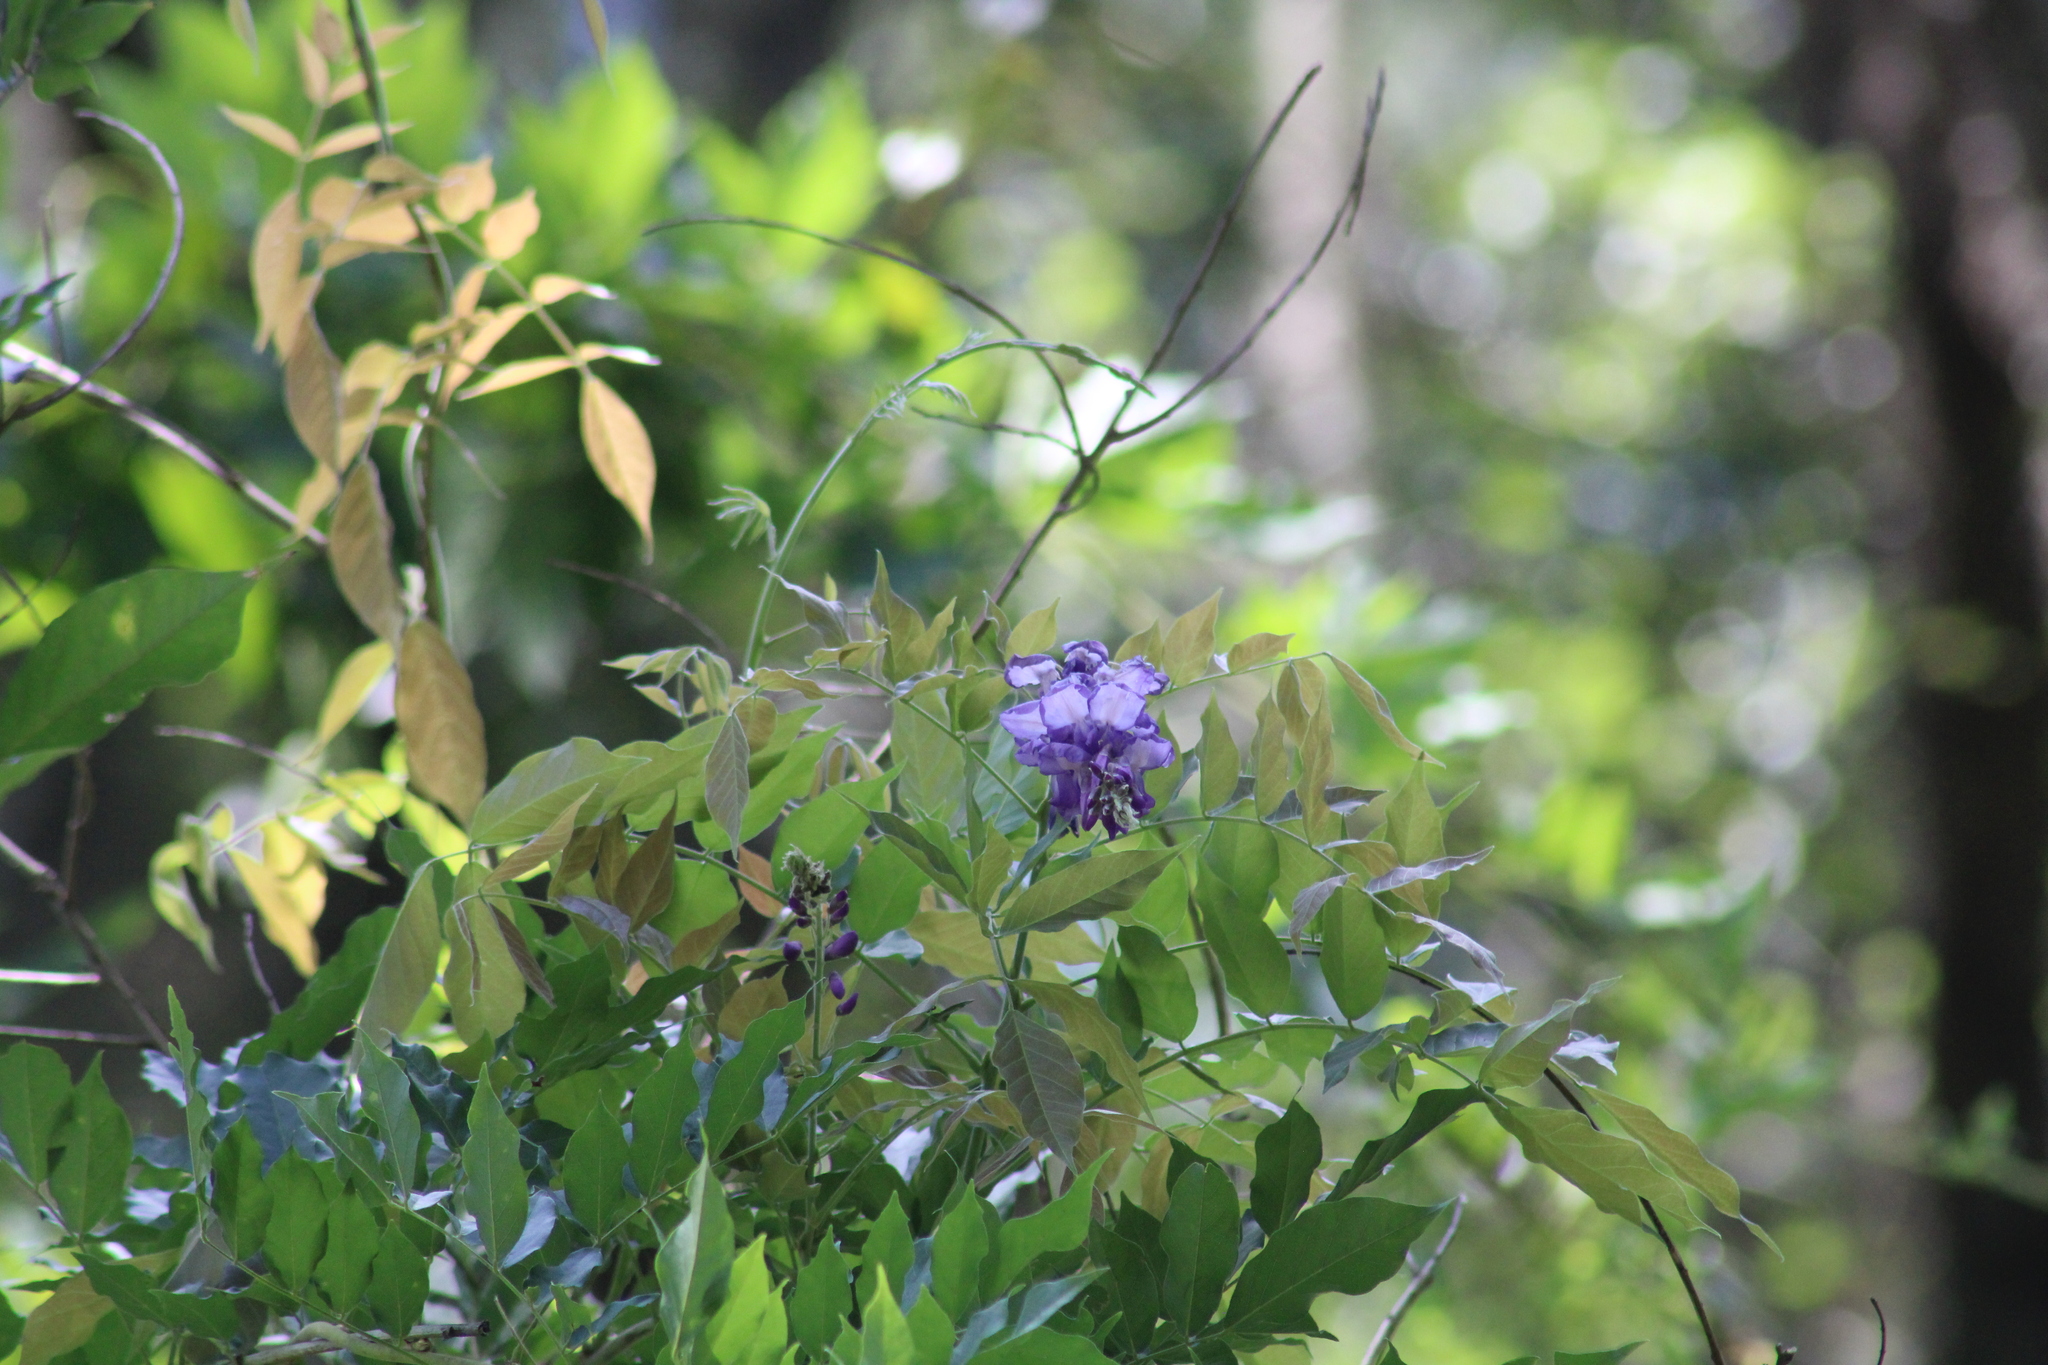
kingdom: Plantae
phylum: Tracheophyta
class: Magnoliopsida
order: Fabales
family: Fabaceae
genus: Wisteria
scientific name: Wisteria sinensis
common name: Chinese wisteria
